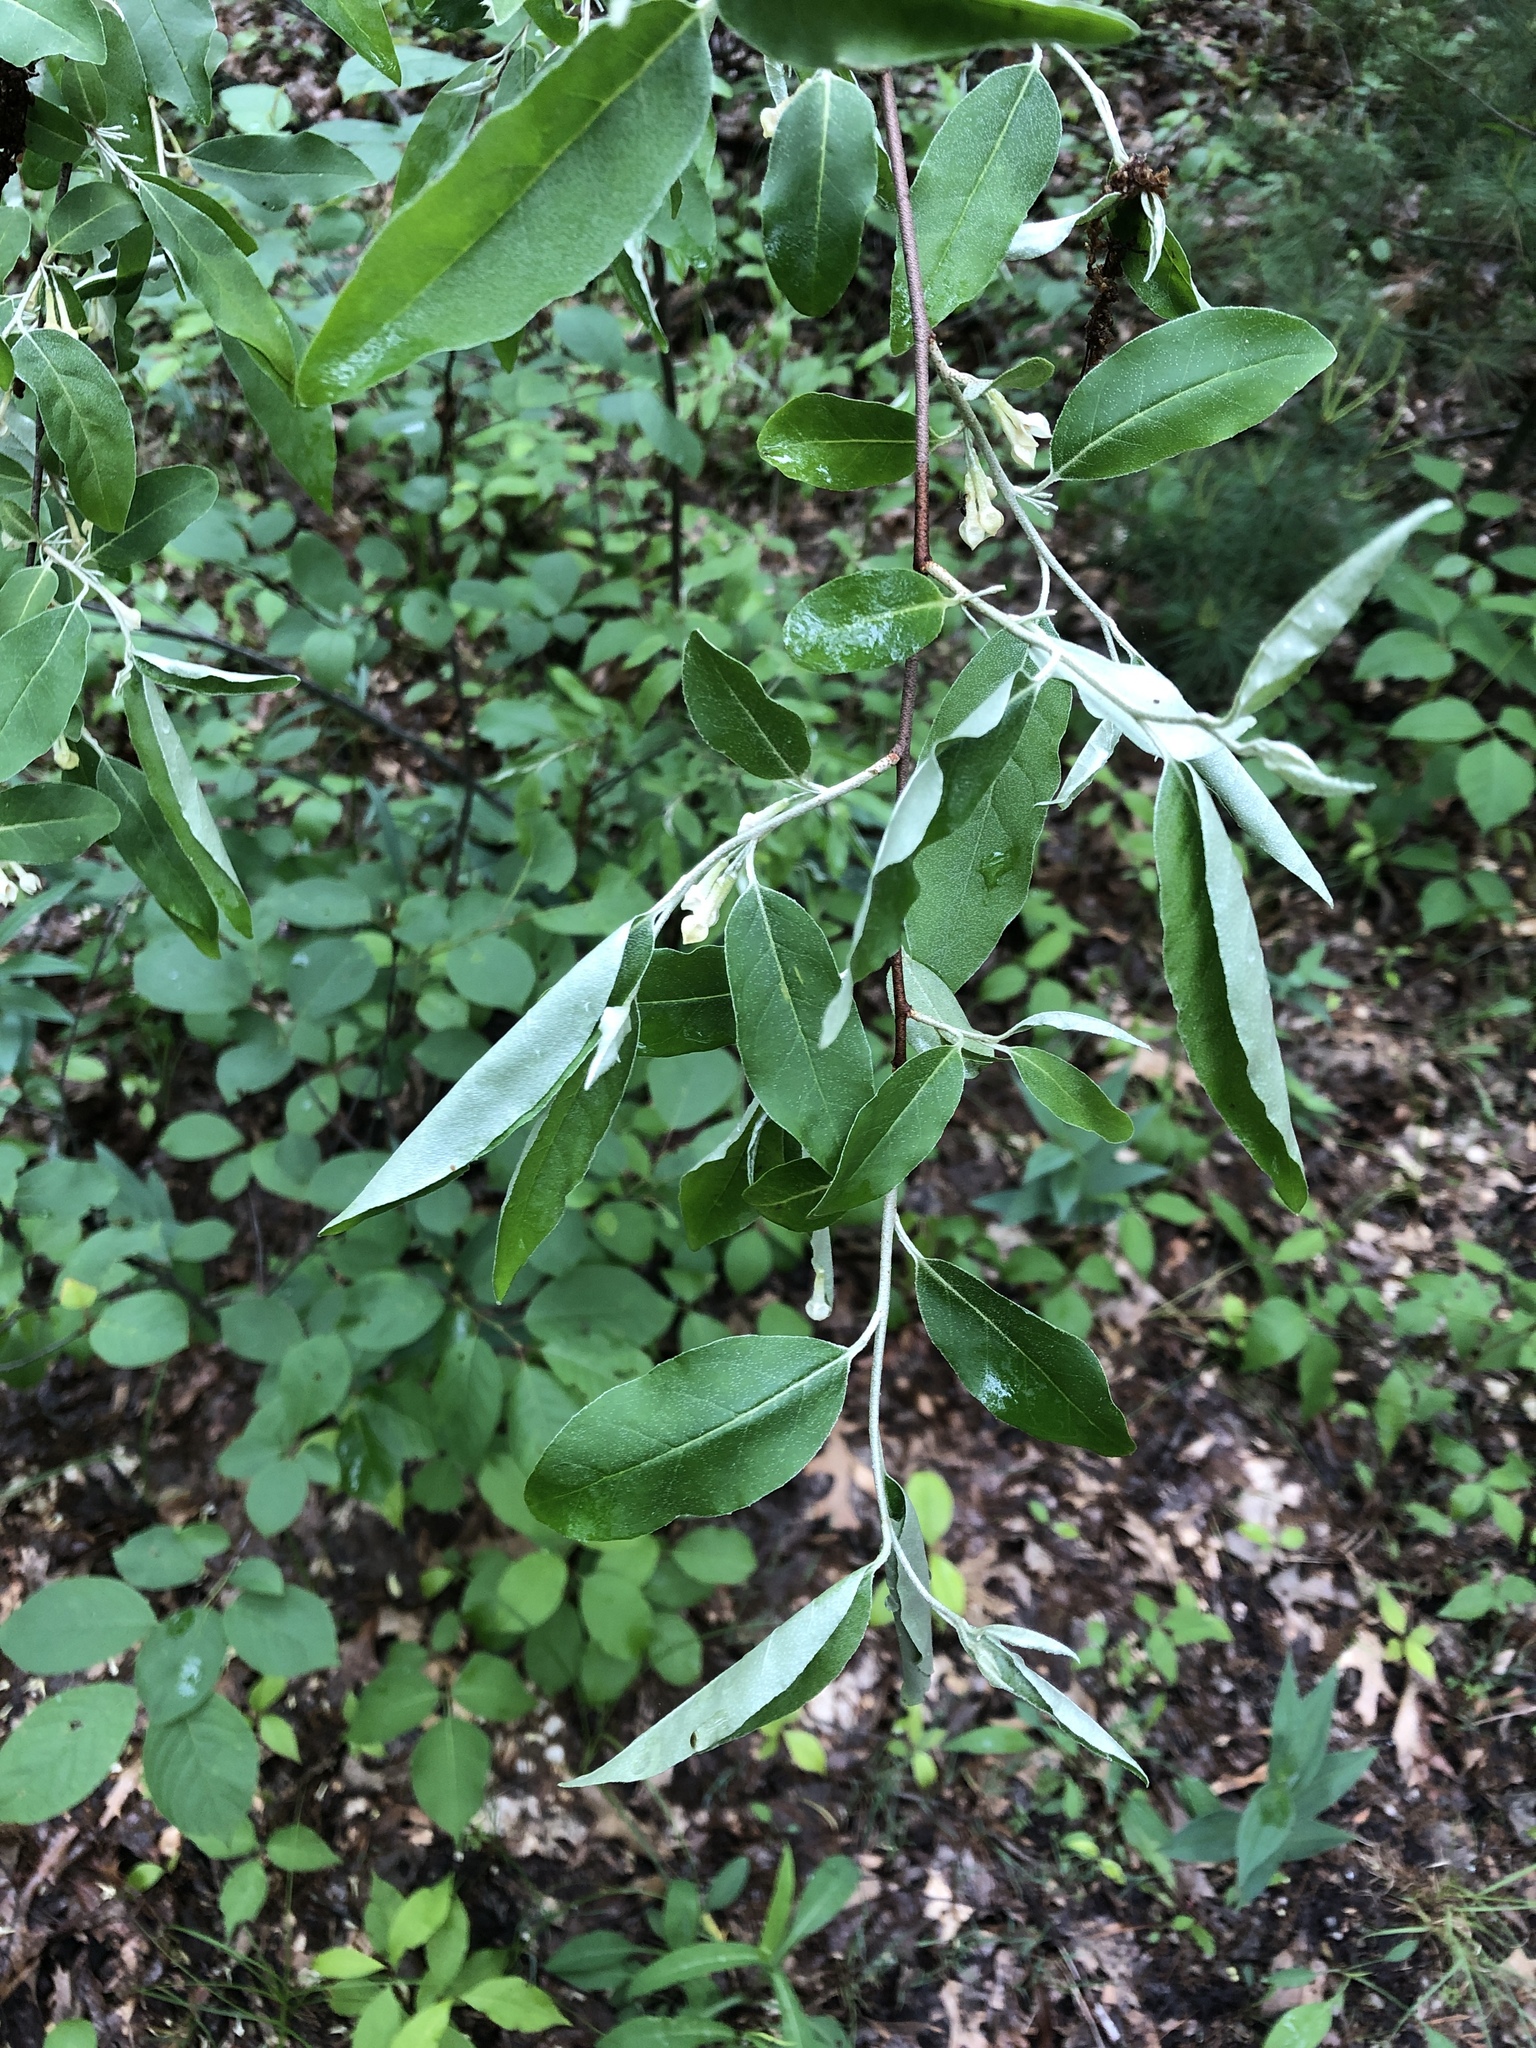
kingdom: Plantae
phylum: Tracheophyta
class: Magnoliopsida
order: Rosales
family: Elaeagnaceae
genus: Elaeagnus
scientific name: Elaeagnus umbellata
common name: Autumn olive
